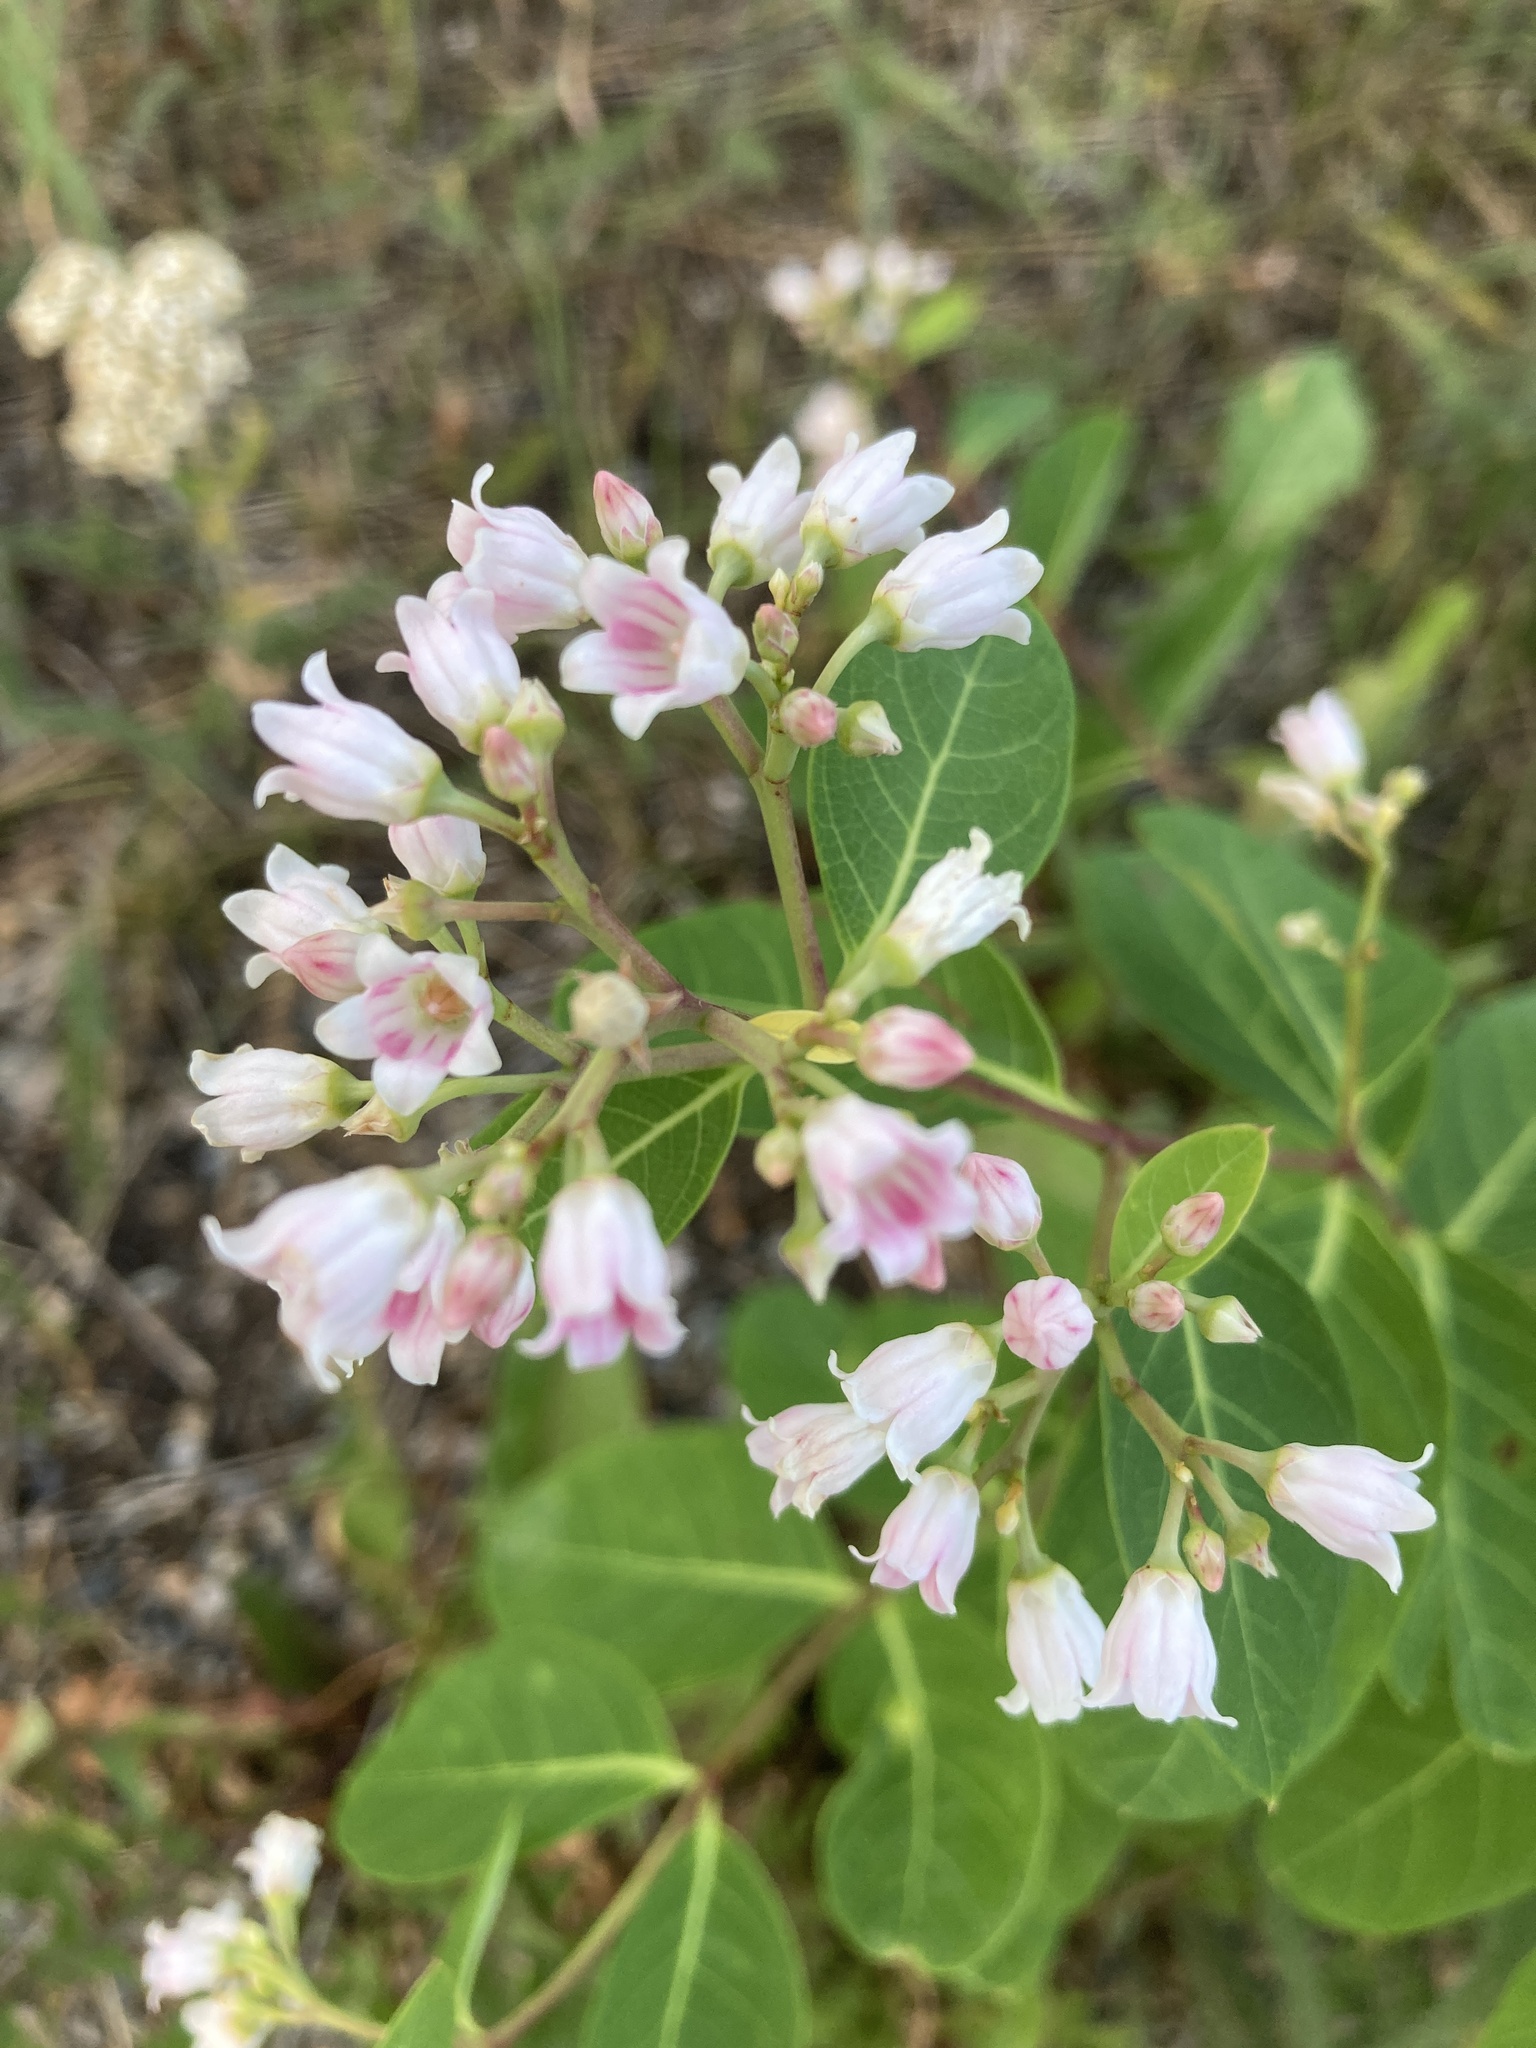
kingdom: Plantae
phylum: Tracheophyta
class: Magnoliopsida
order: Gentianales
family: Apocynaceae
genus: Apocynum
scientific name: Apocynum androsaemifolium
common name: Spreading dogbane
